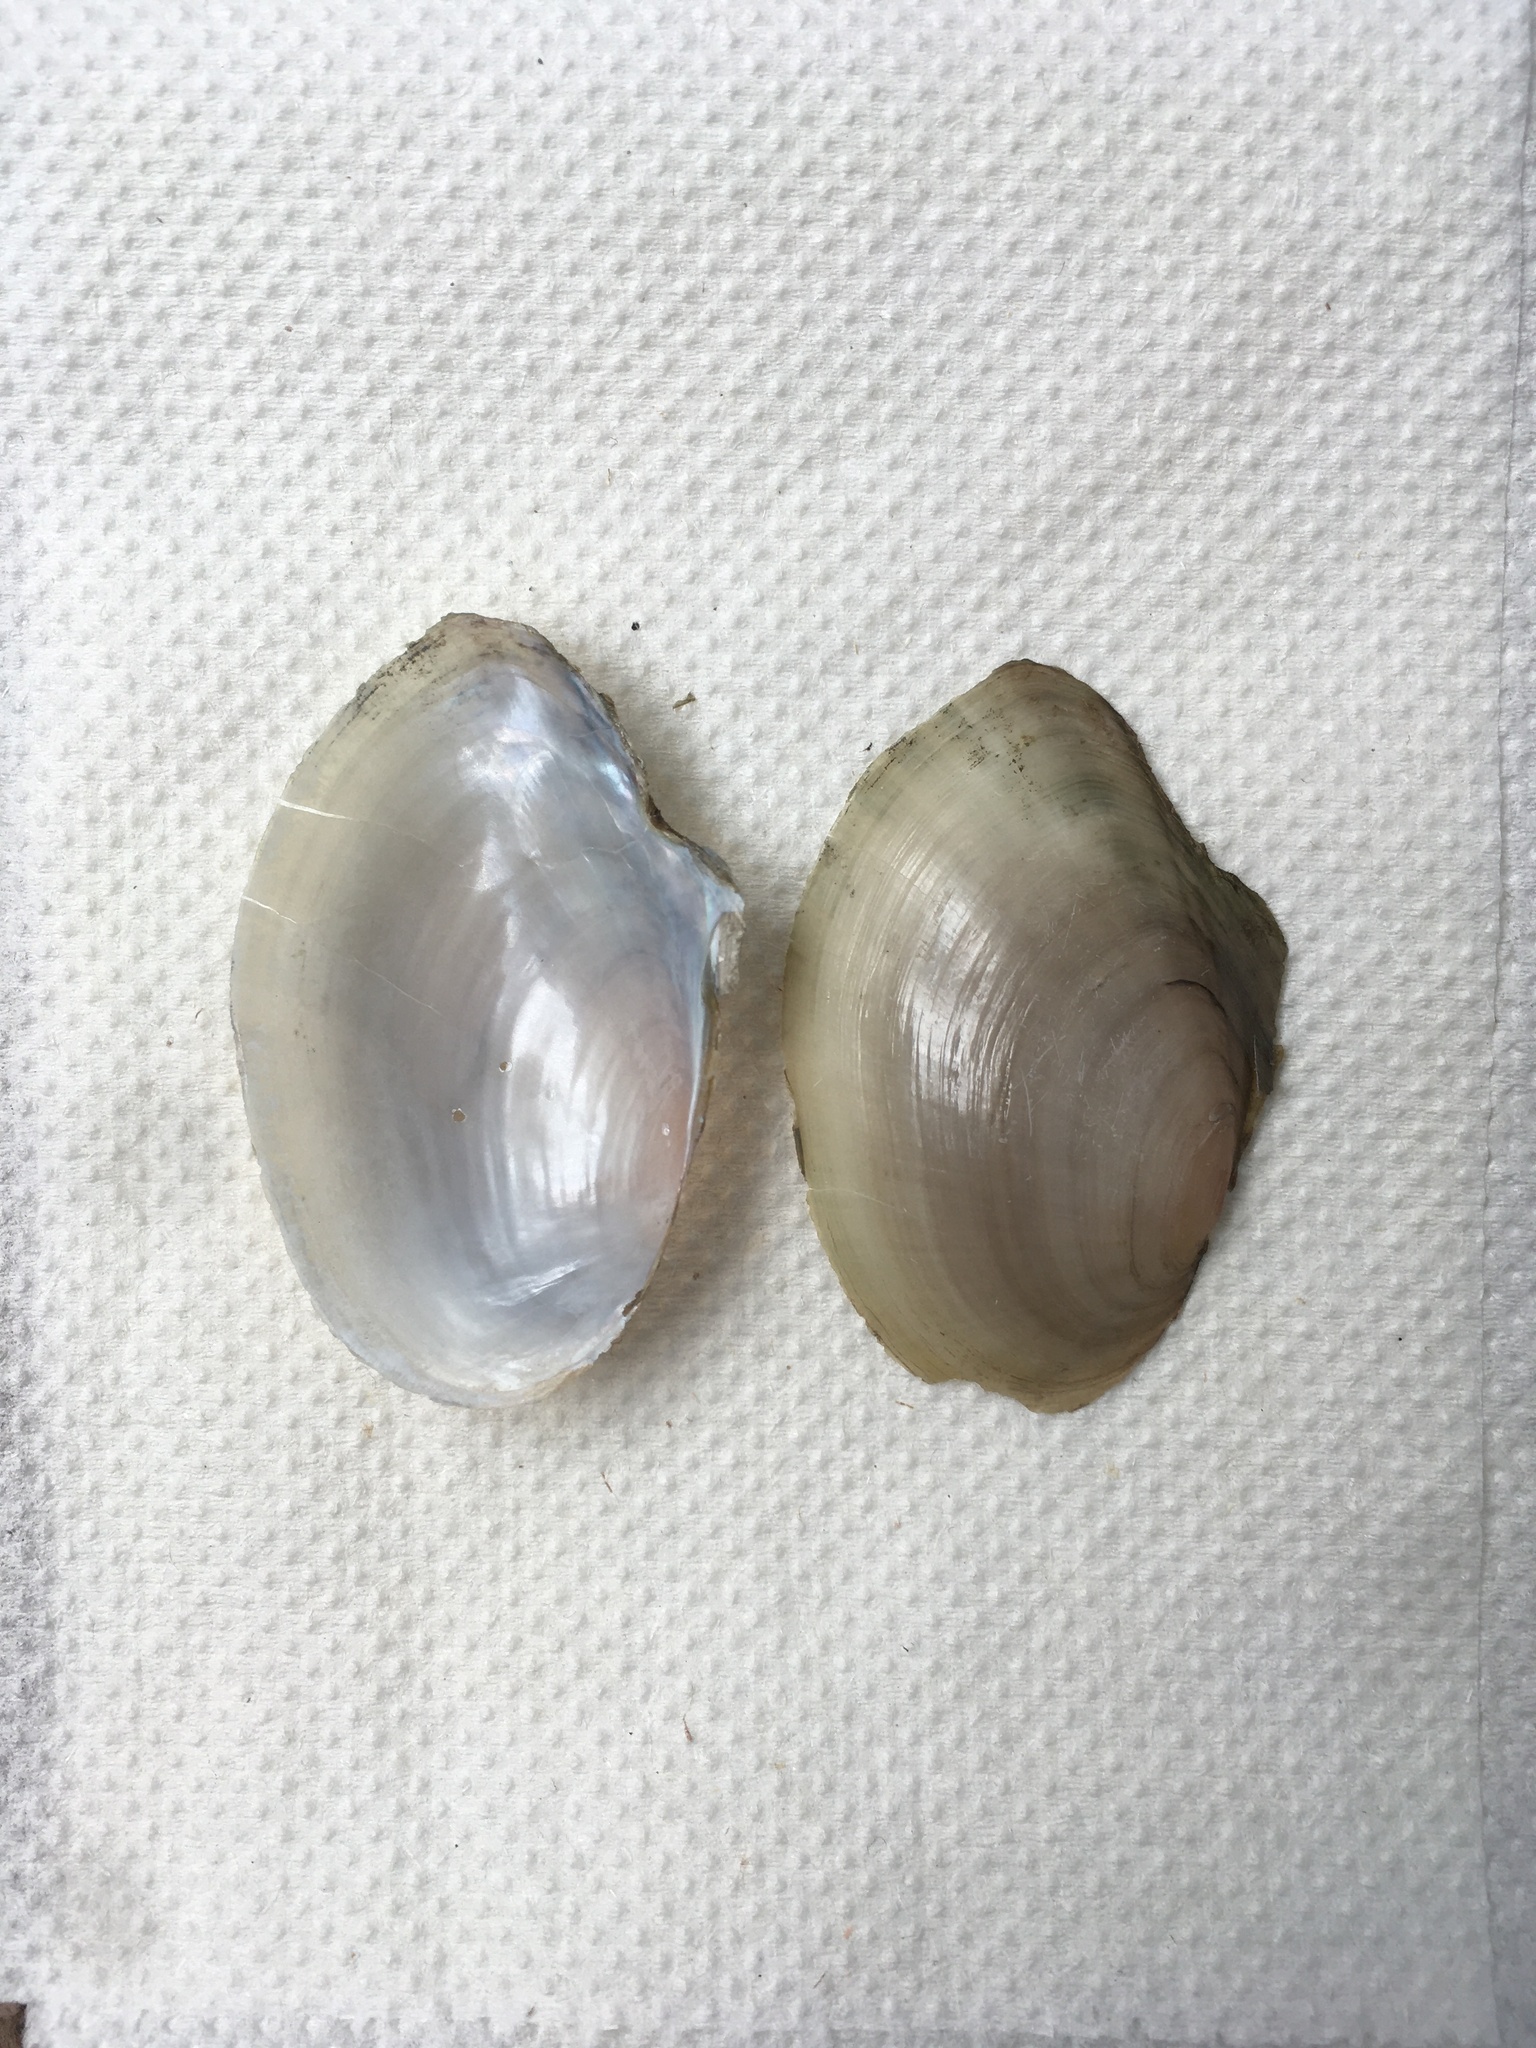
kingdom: Animalia
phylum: Mollusca
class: Bivalvia
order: Unionida
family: Unionidae
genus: Anodonta
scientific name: Anodonta anatina
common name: Duck mussel
